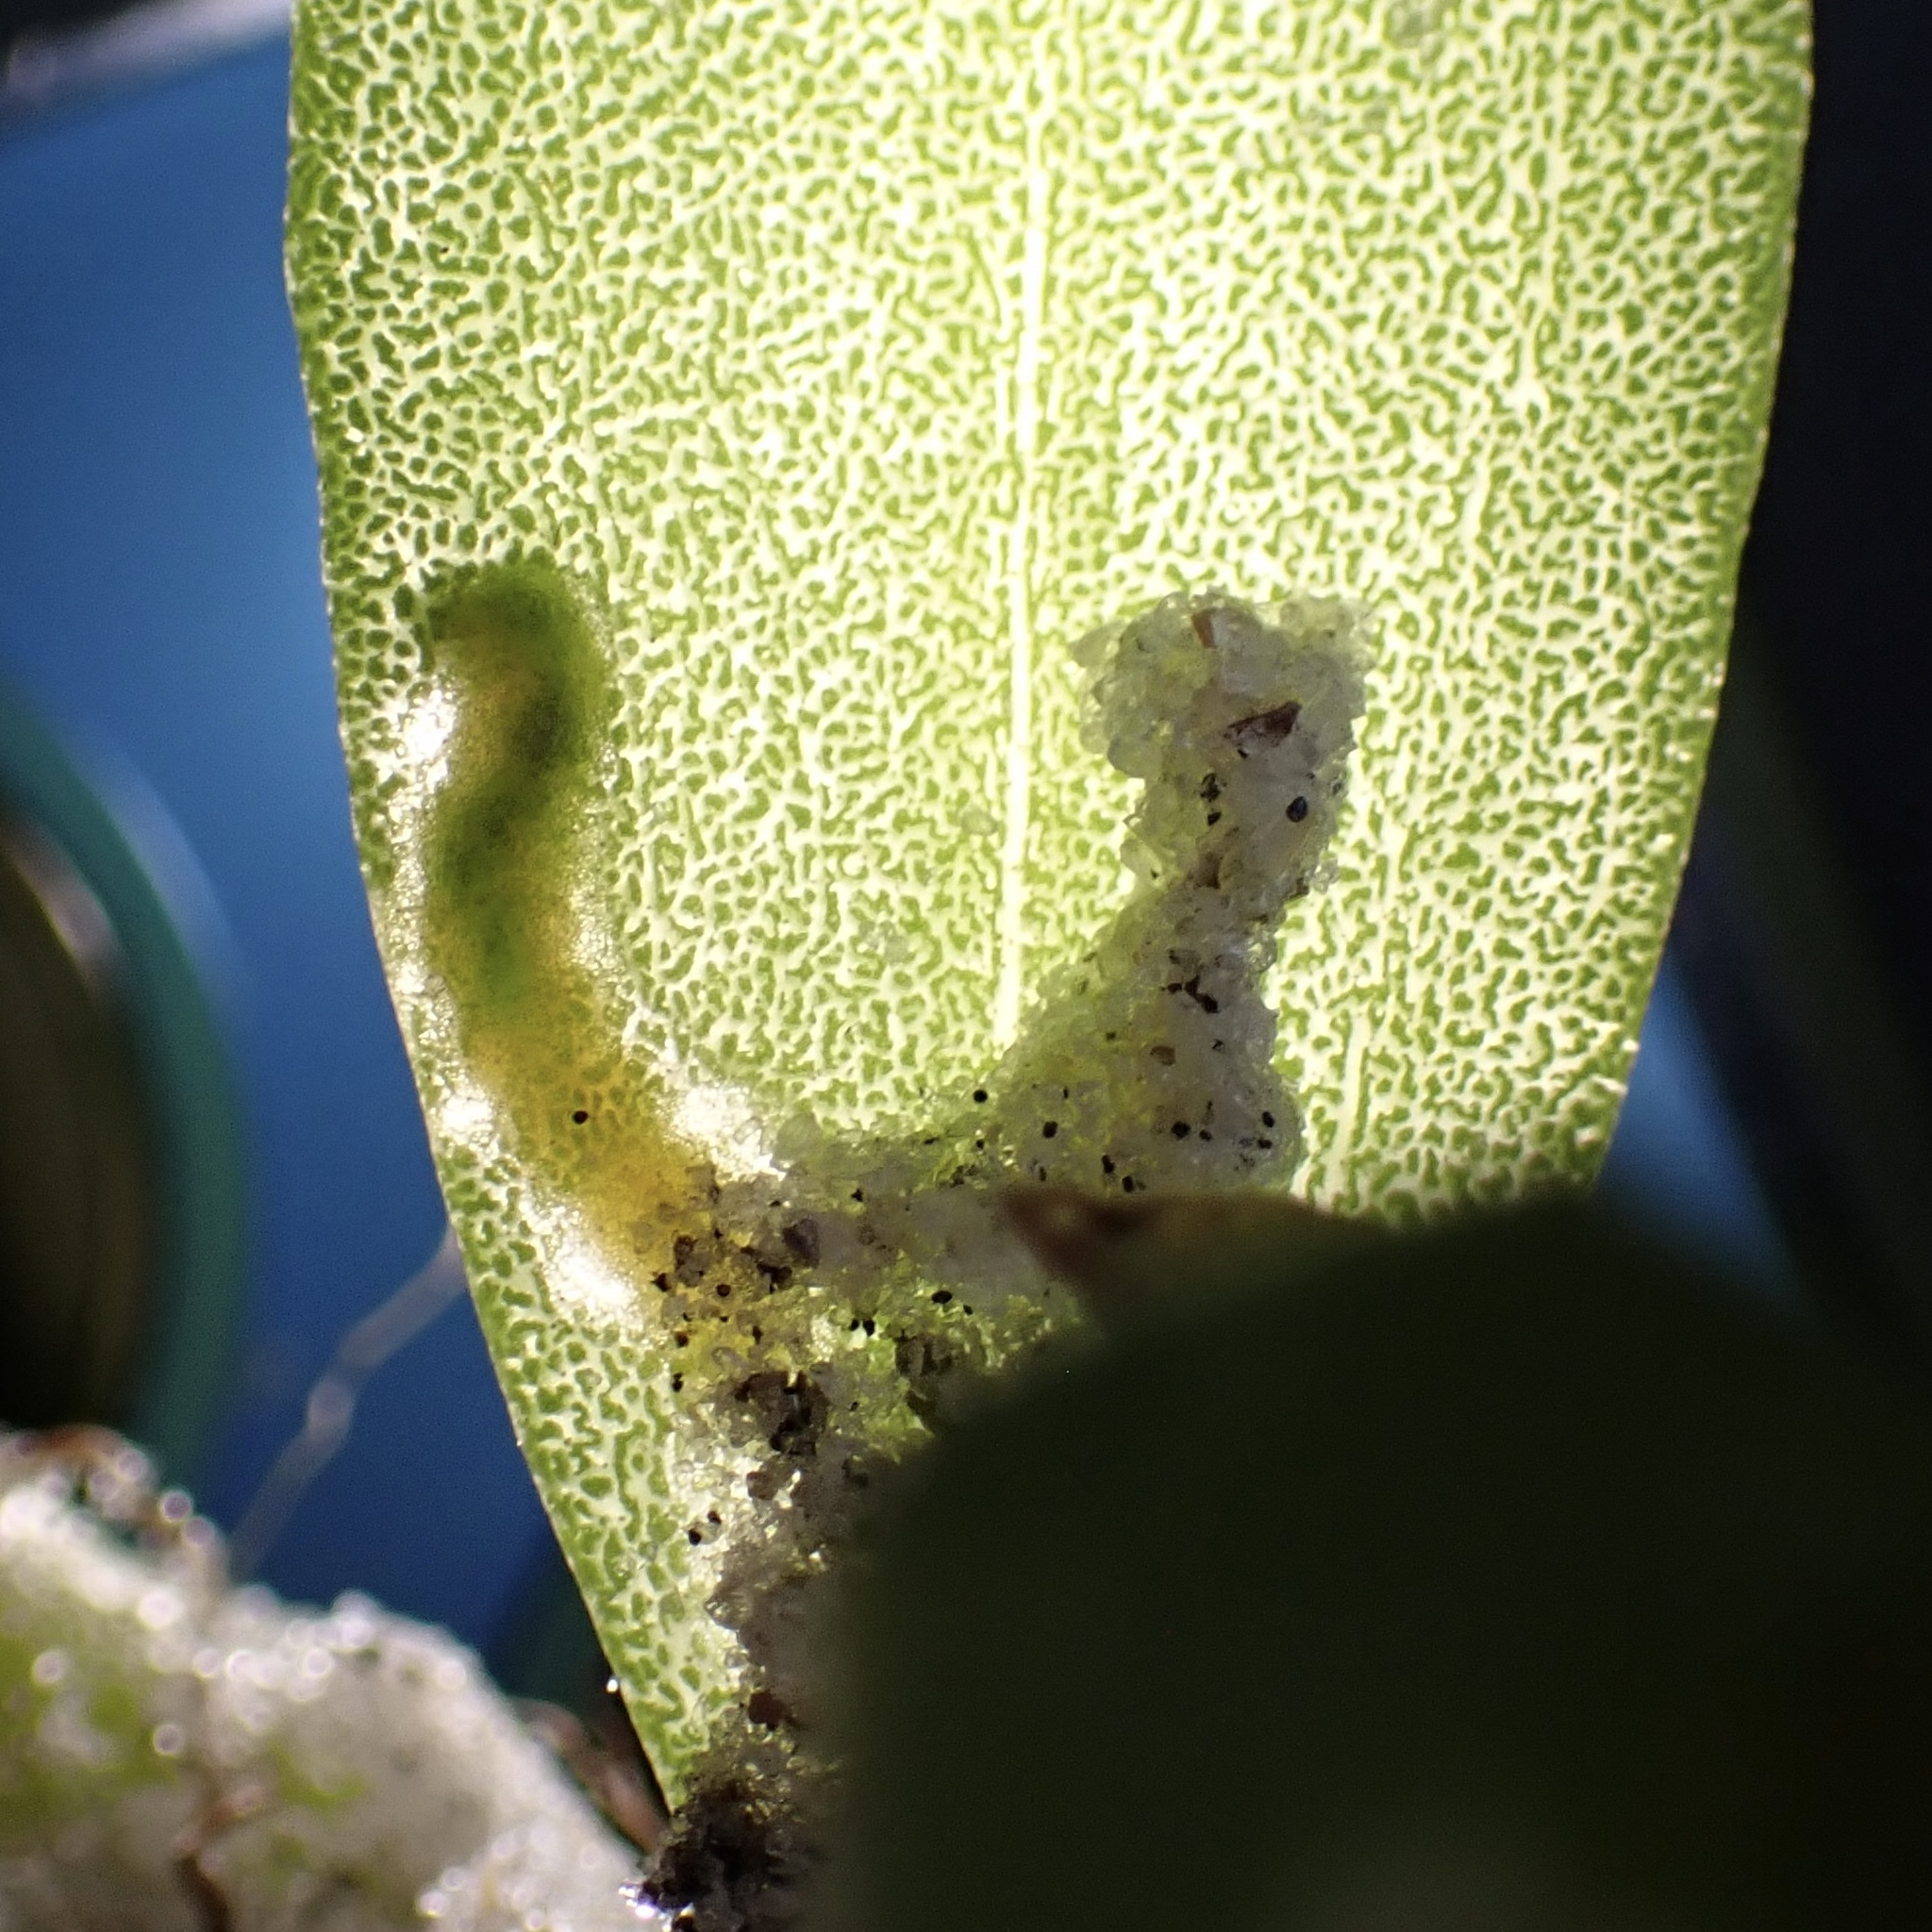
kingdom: Animalia
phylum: Arthropoda
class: Insecta
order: Lepidoptera
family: Gelechiidae
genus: Gnorimoschema
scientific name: Gnorimoschema terracottella
